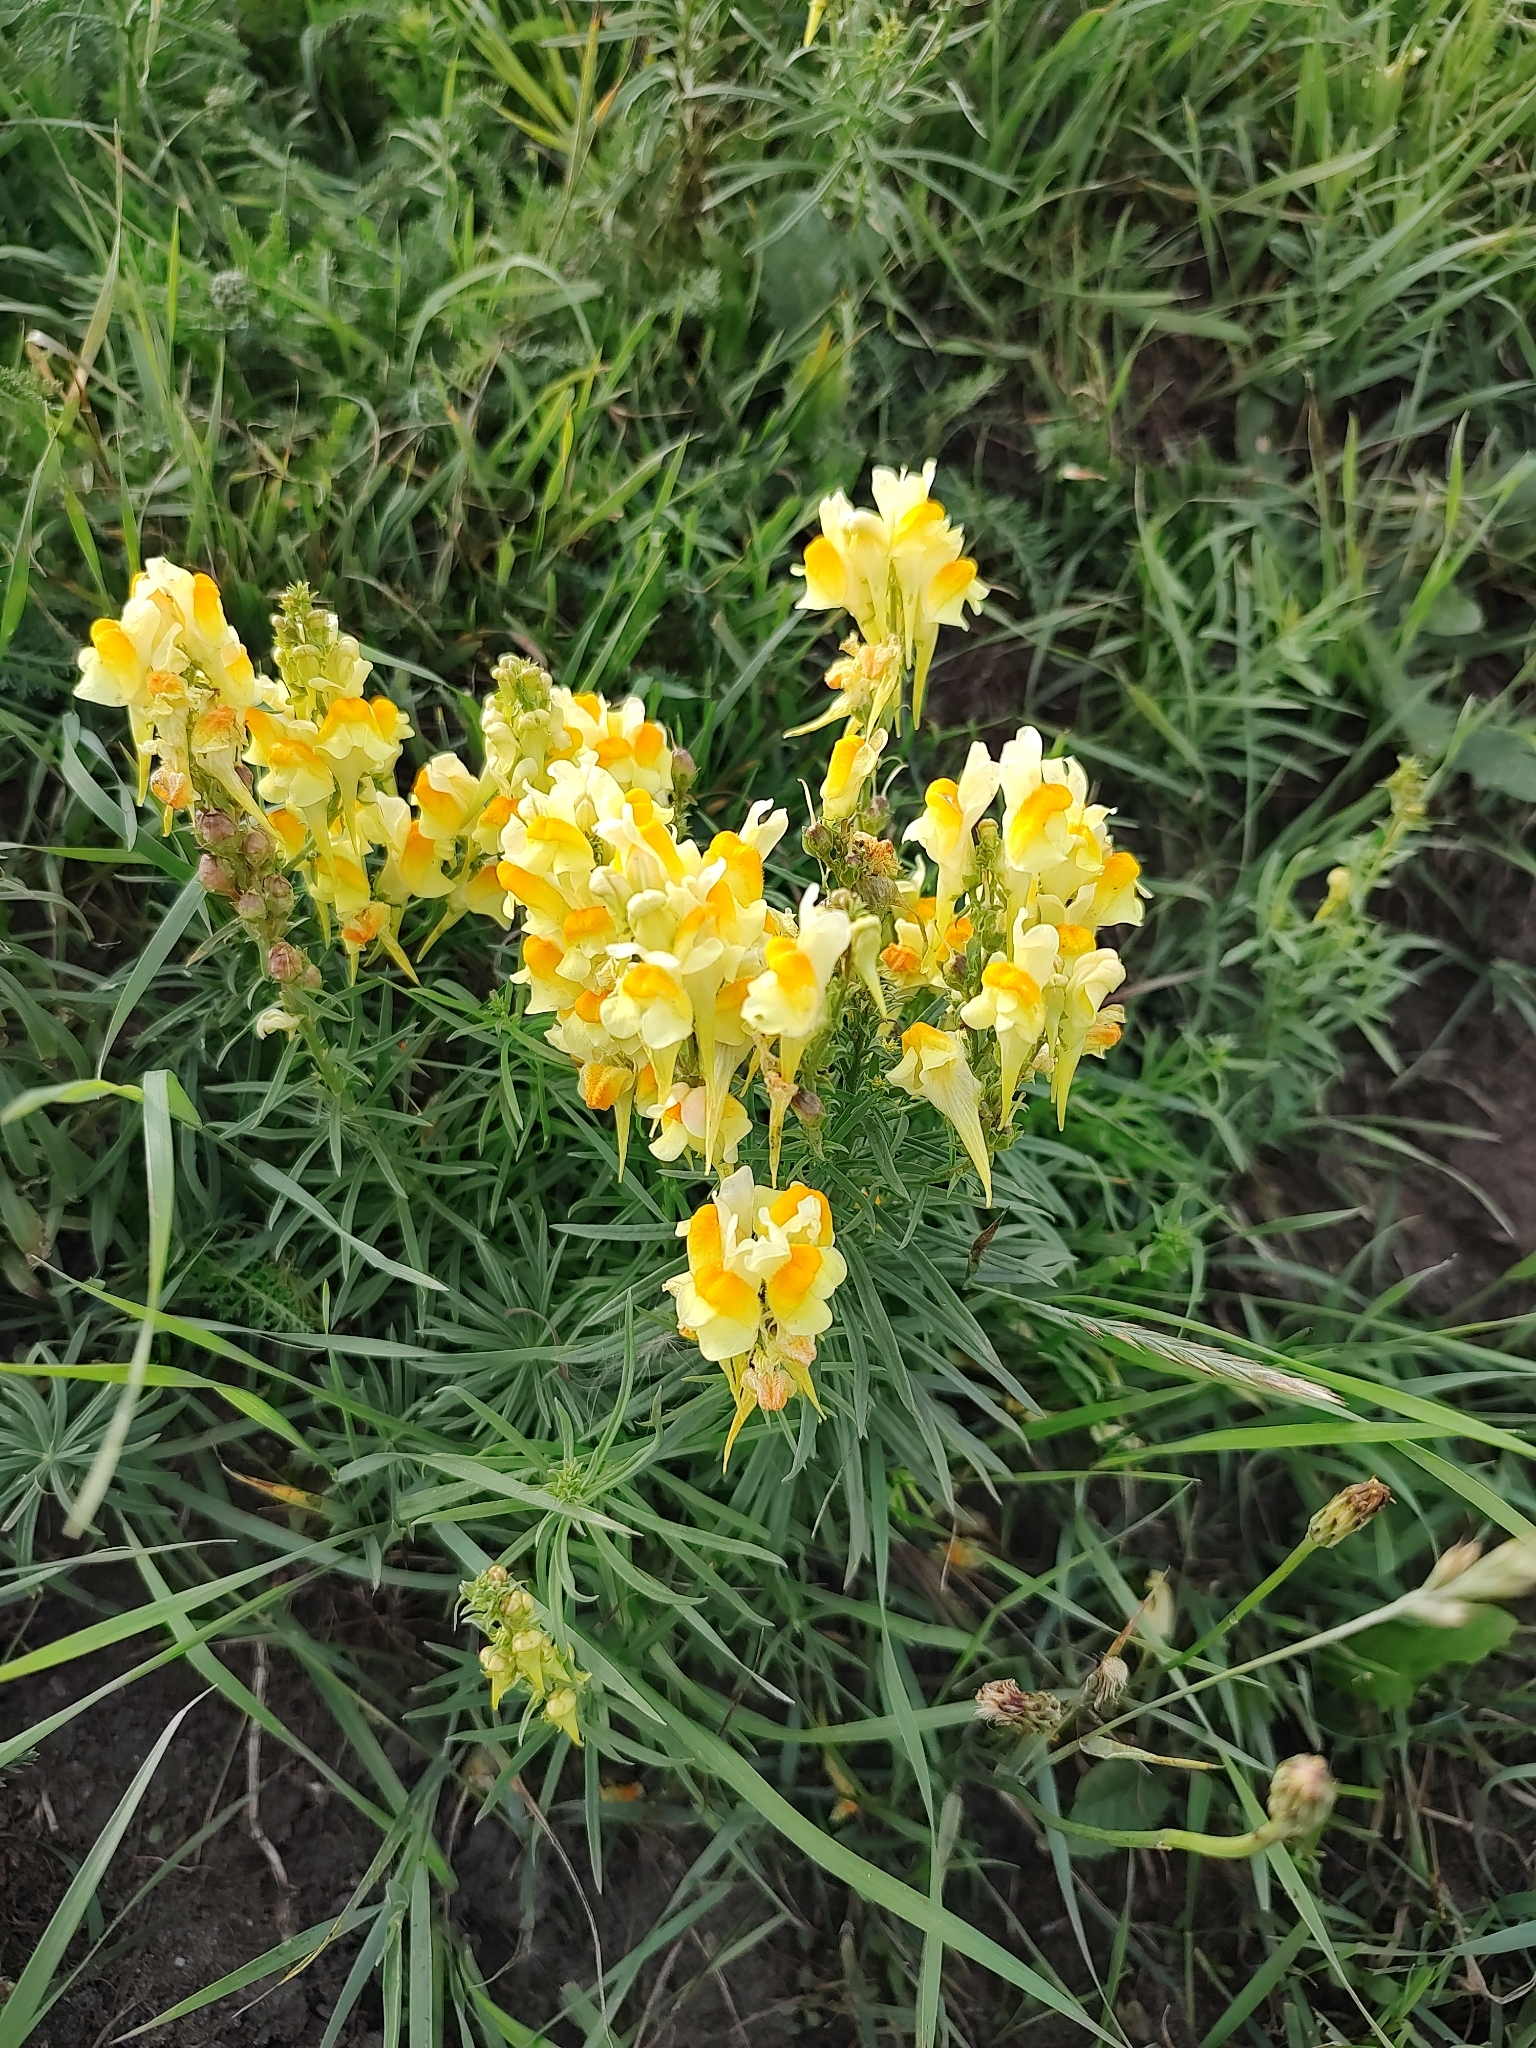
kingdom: Plantae
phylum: Tracheophyta
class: Magnoliopsida
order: Lamiales
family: Plantaginaceae
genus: Linaria
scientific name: Linaria vulgaris
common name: Butter and eggs
